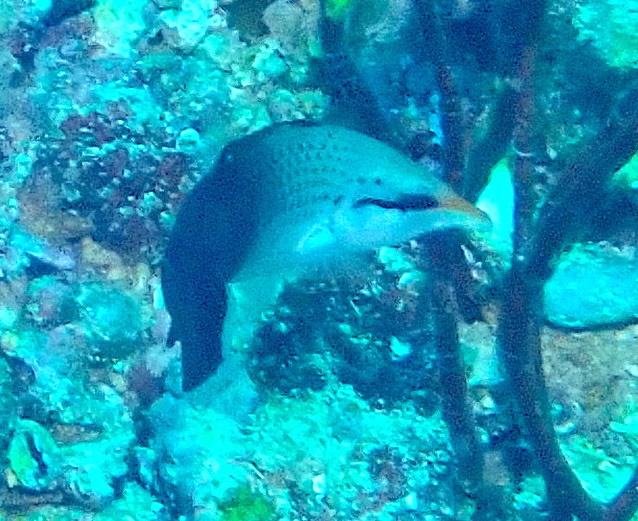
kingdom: Animalia
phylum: Chordata
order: Perciformes
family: Labridae
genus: Gomphosus
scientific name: Gomphosus varius
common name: Bird wrasse
